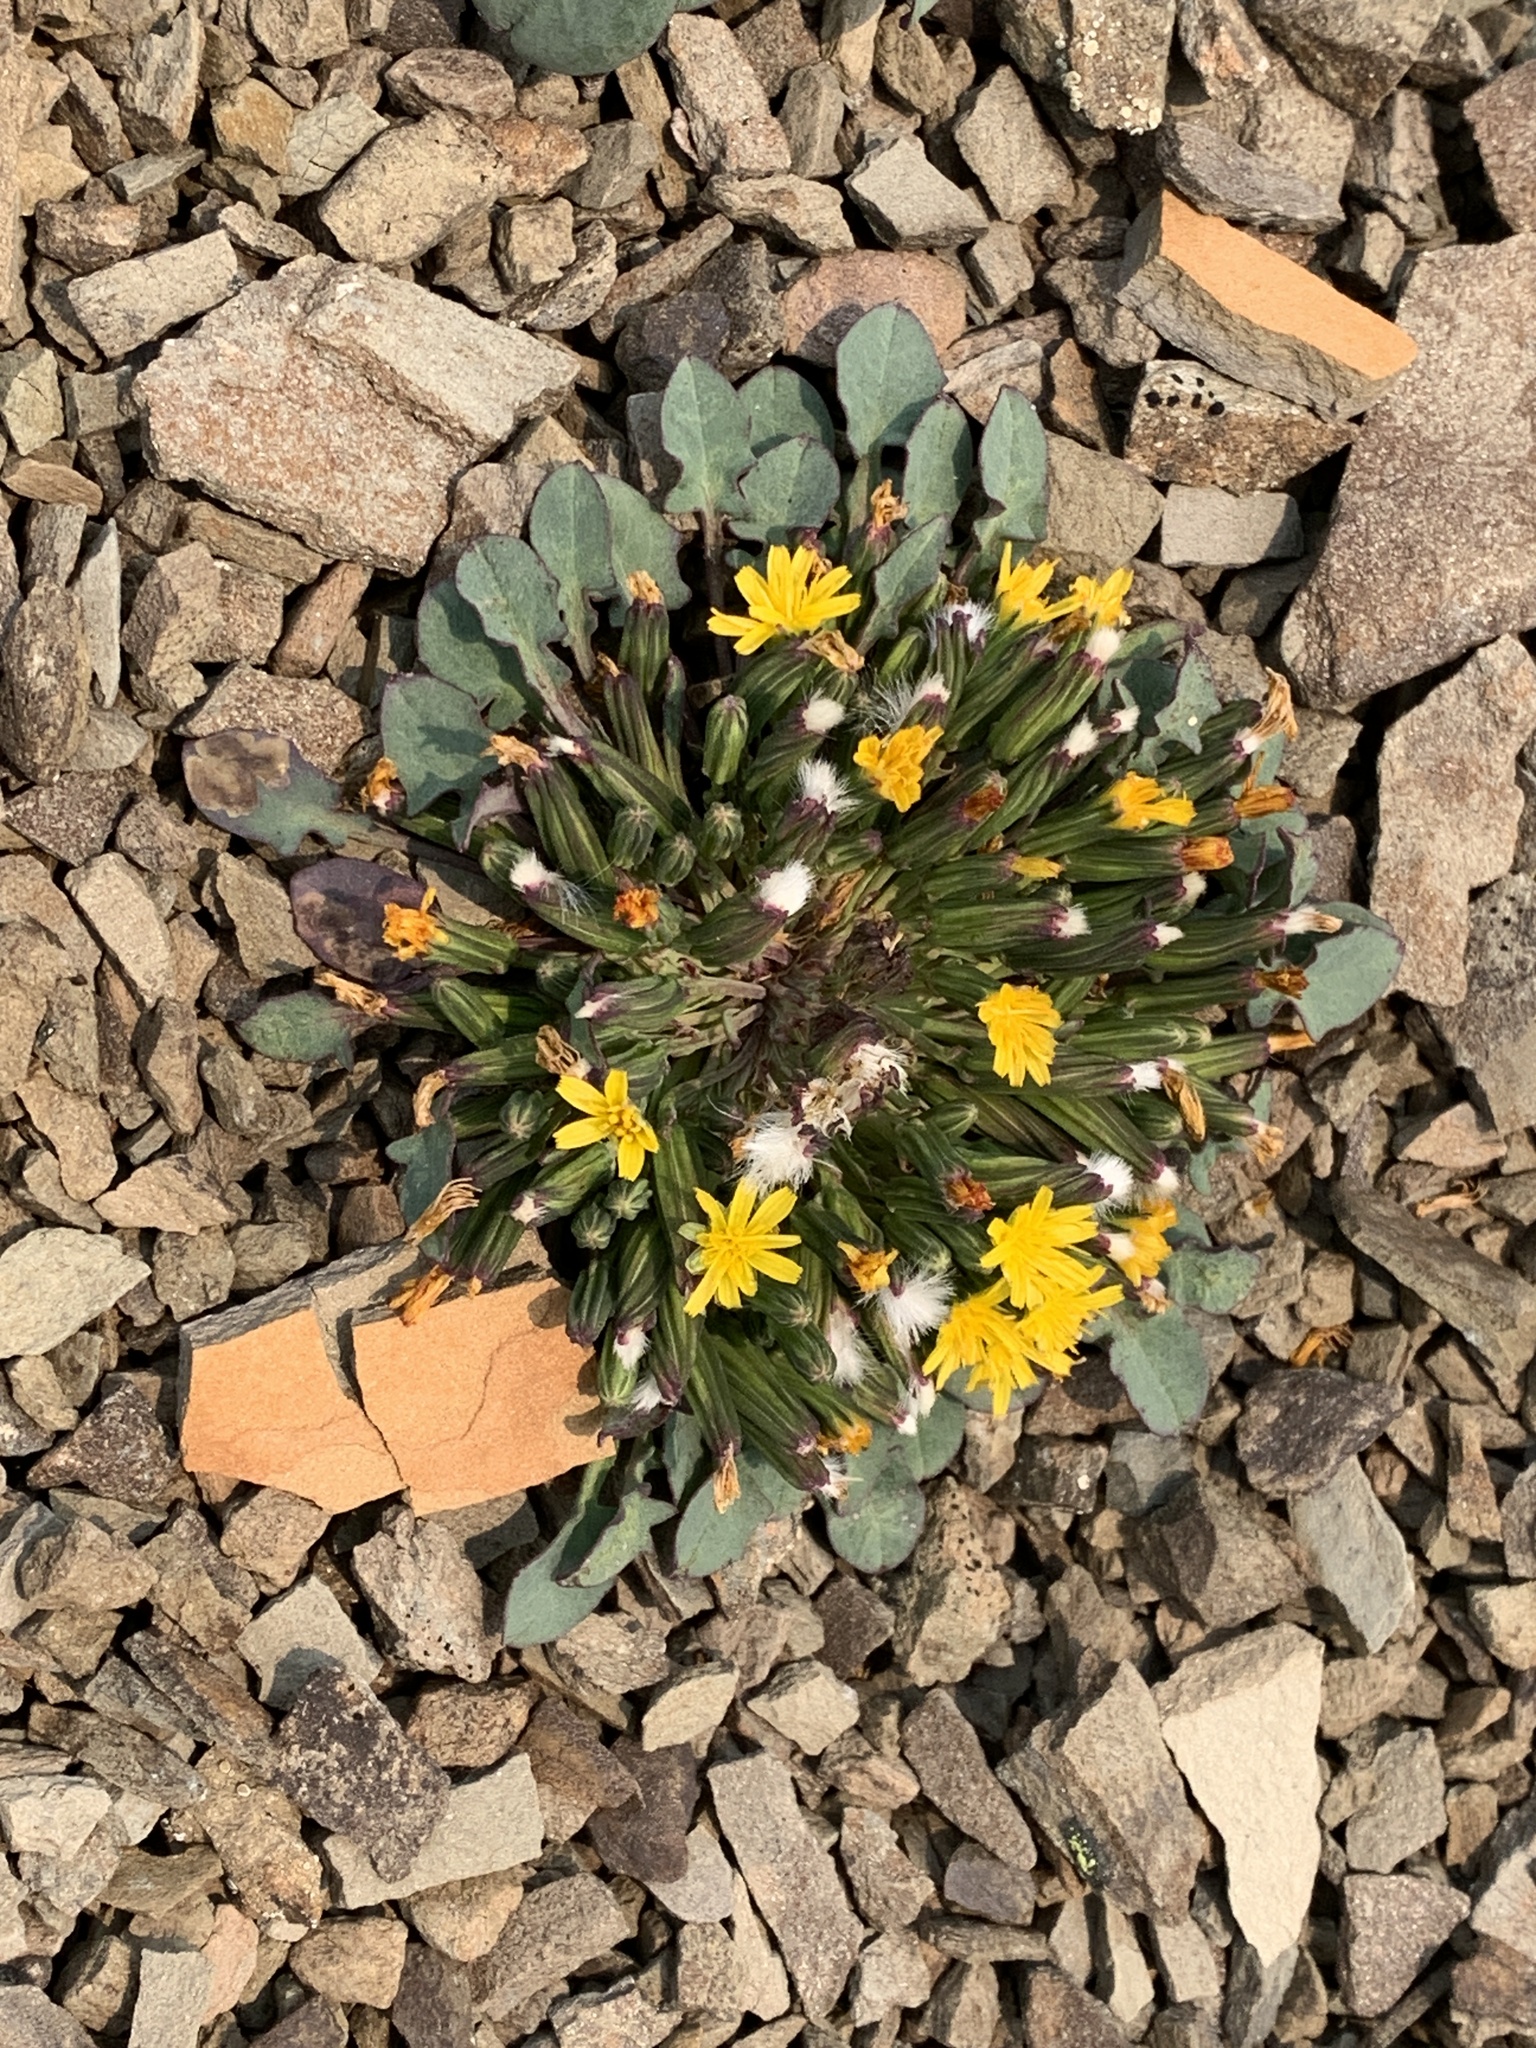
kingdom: Plantae
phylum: Tracheophyta
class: Magnoliopsida
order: Asterales
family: Asteraceae
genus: Askellia
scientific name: Askellia pygmaea
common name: Dwarf alpine hawksbeard
